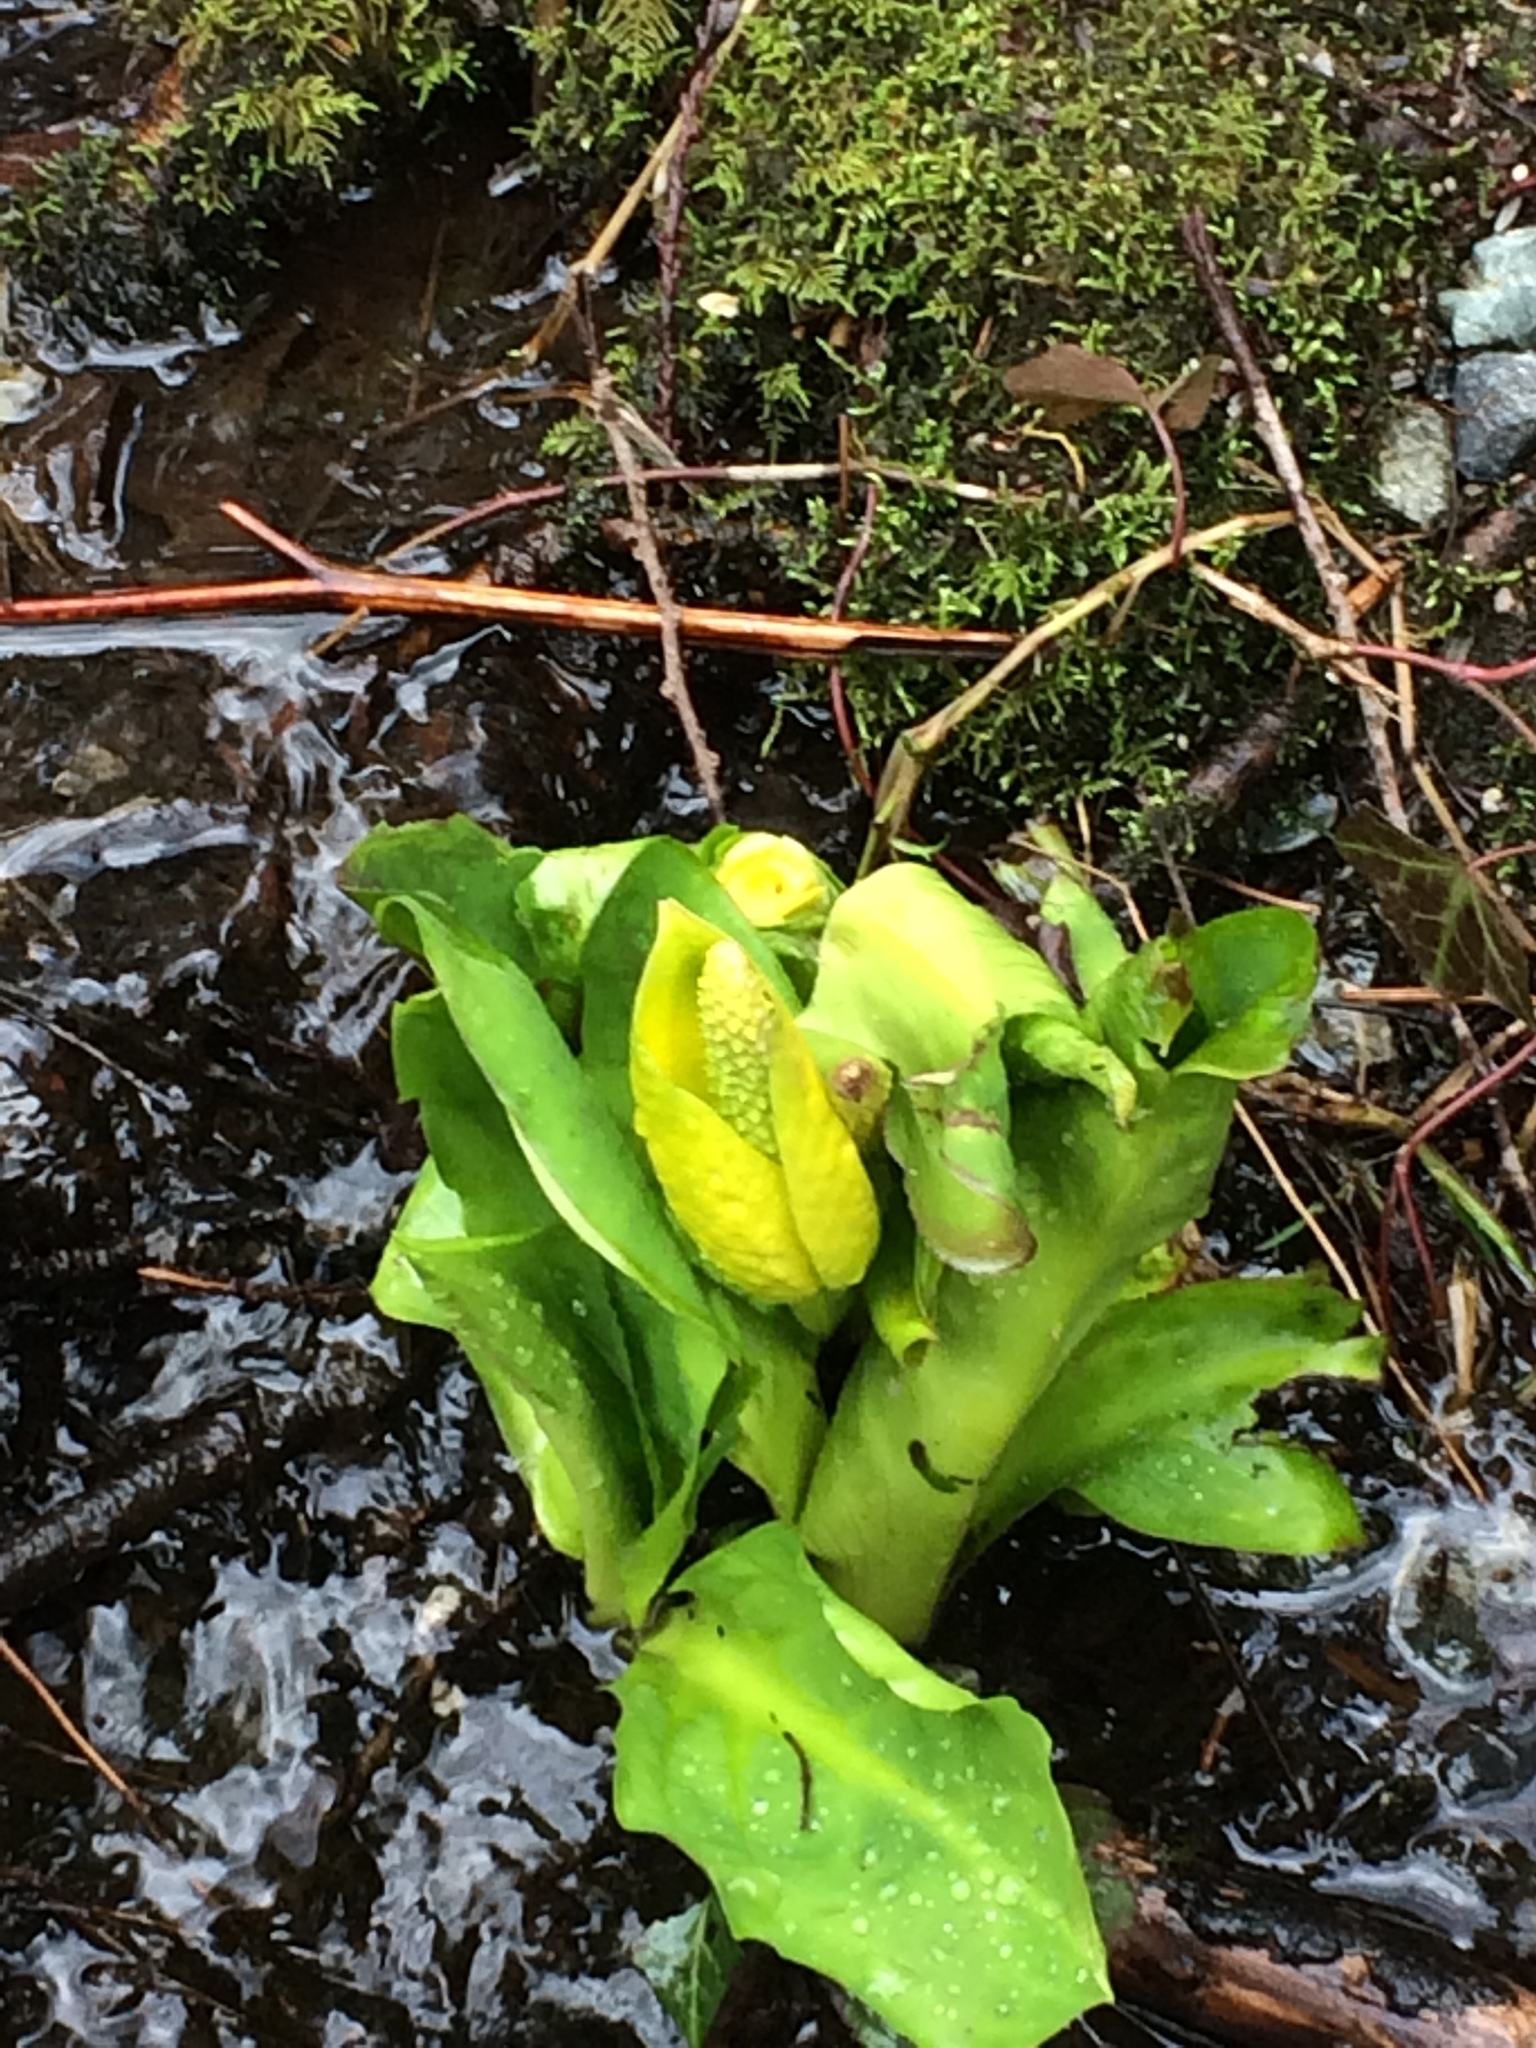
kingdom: Plantae
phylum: Tracheophyta
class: Liliopsida
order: Alismatales
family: Araceae
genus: Lysichiton
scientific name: Lysichiton americanus
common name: American skunk cabbage
